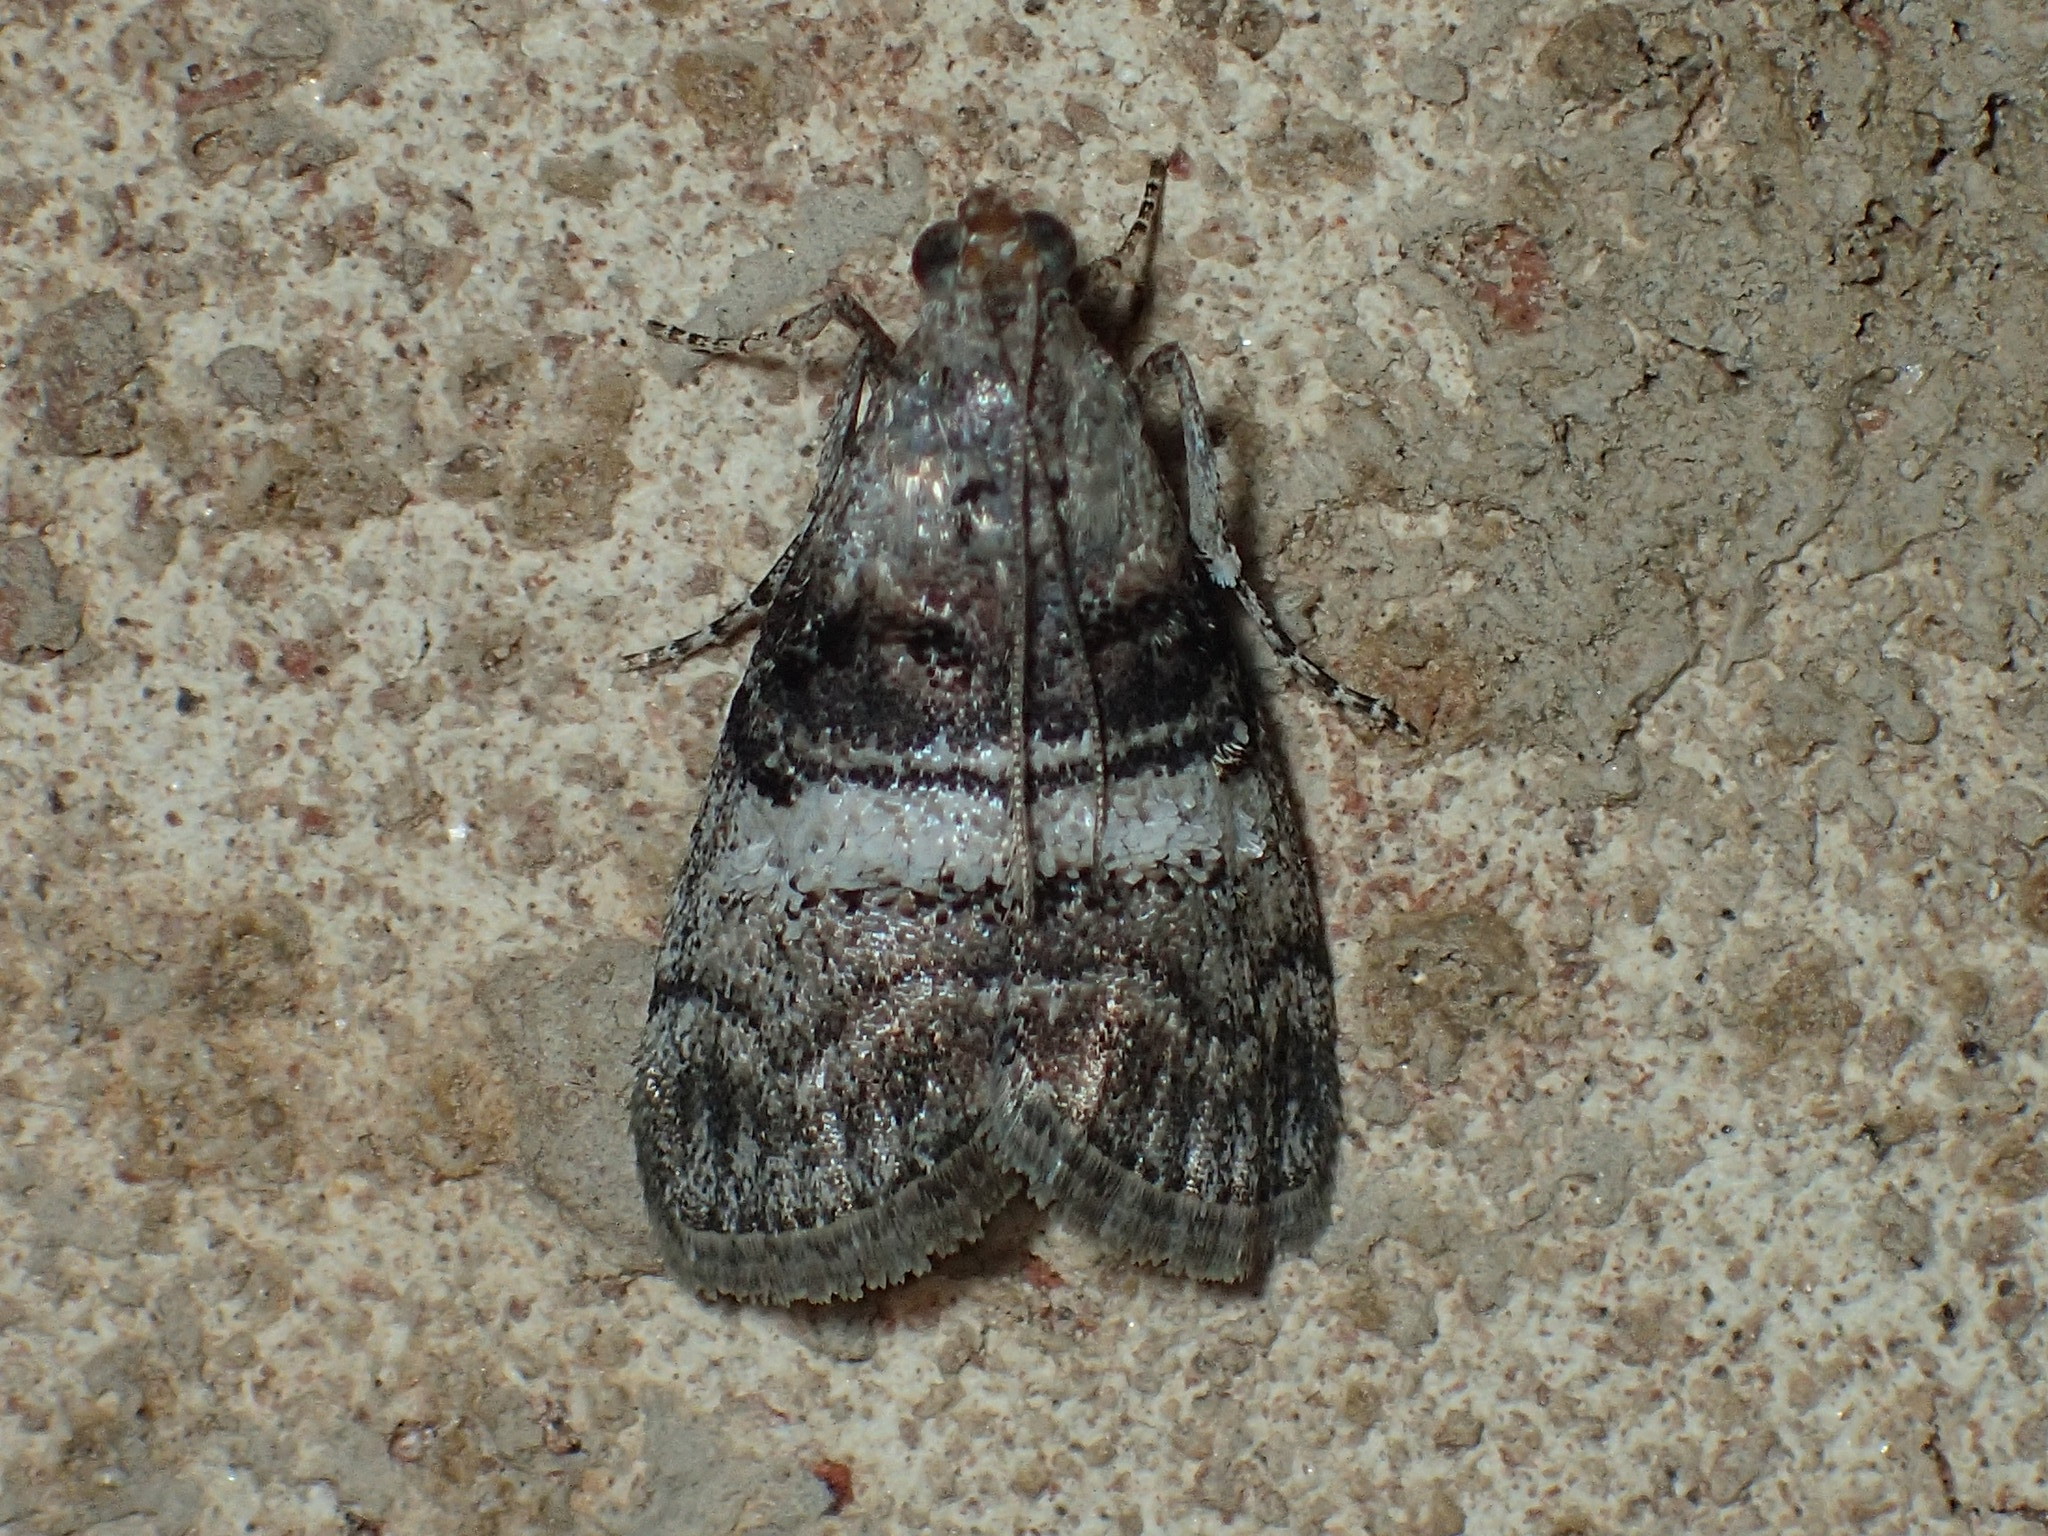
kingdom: Animalia
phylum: Arthropoda
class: Insecta
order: Lepidoptera
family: Pyralidae
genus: Pococera
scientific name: Pococera asperatella
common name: Maple webworm moth
